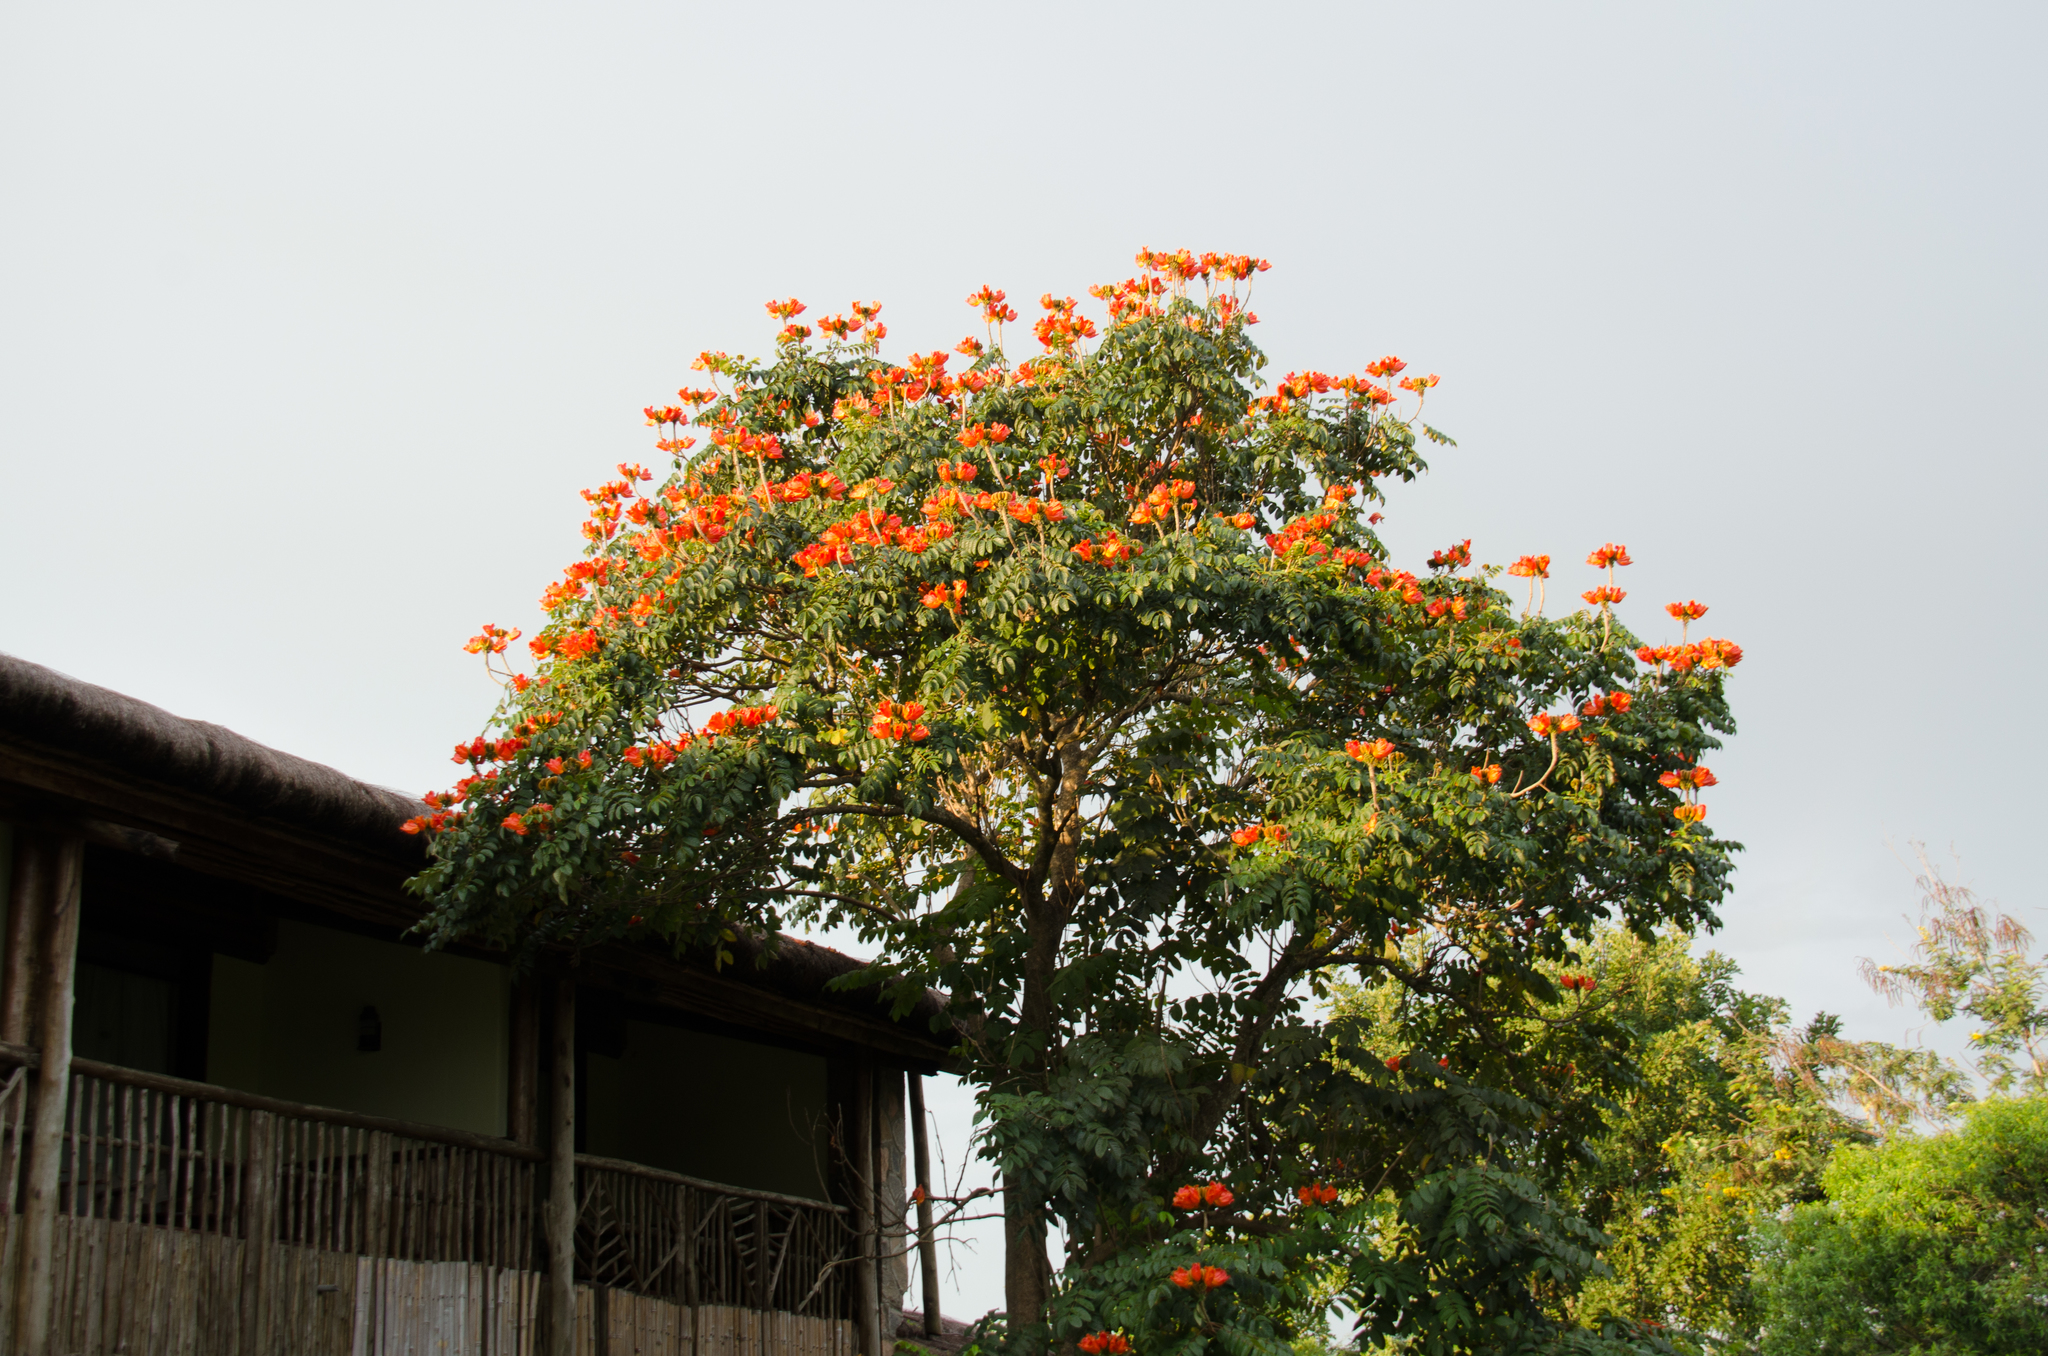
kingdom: Plantae
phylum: Tracheophyta
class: Magnoliopsida
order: Lamiales
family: Bignoniaceae
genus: Spathodea
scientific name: Spathodea campanulata
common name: African tuliptree
